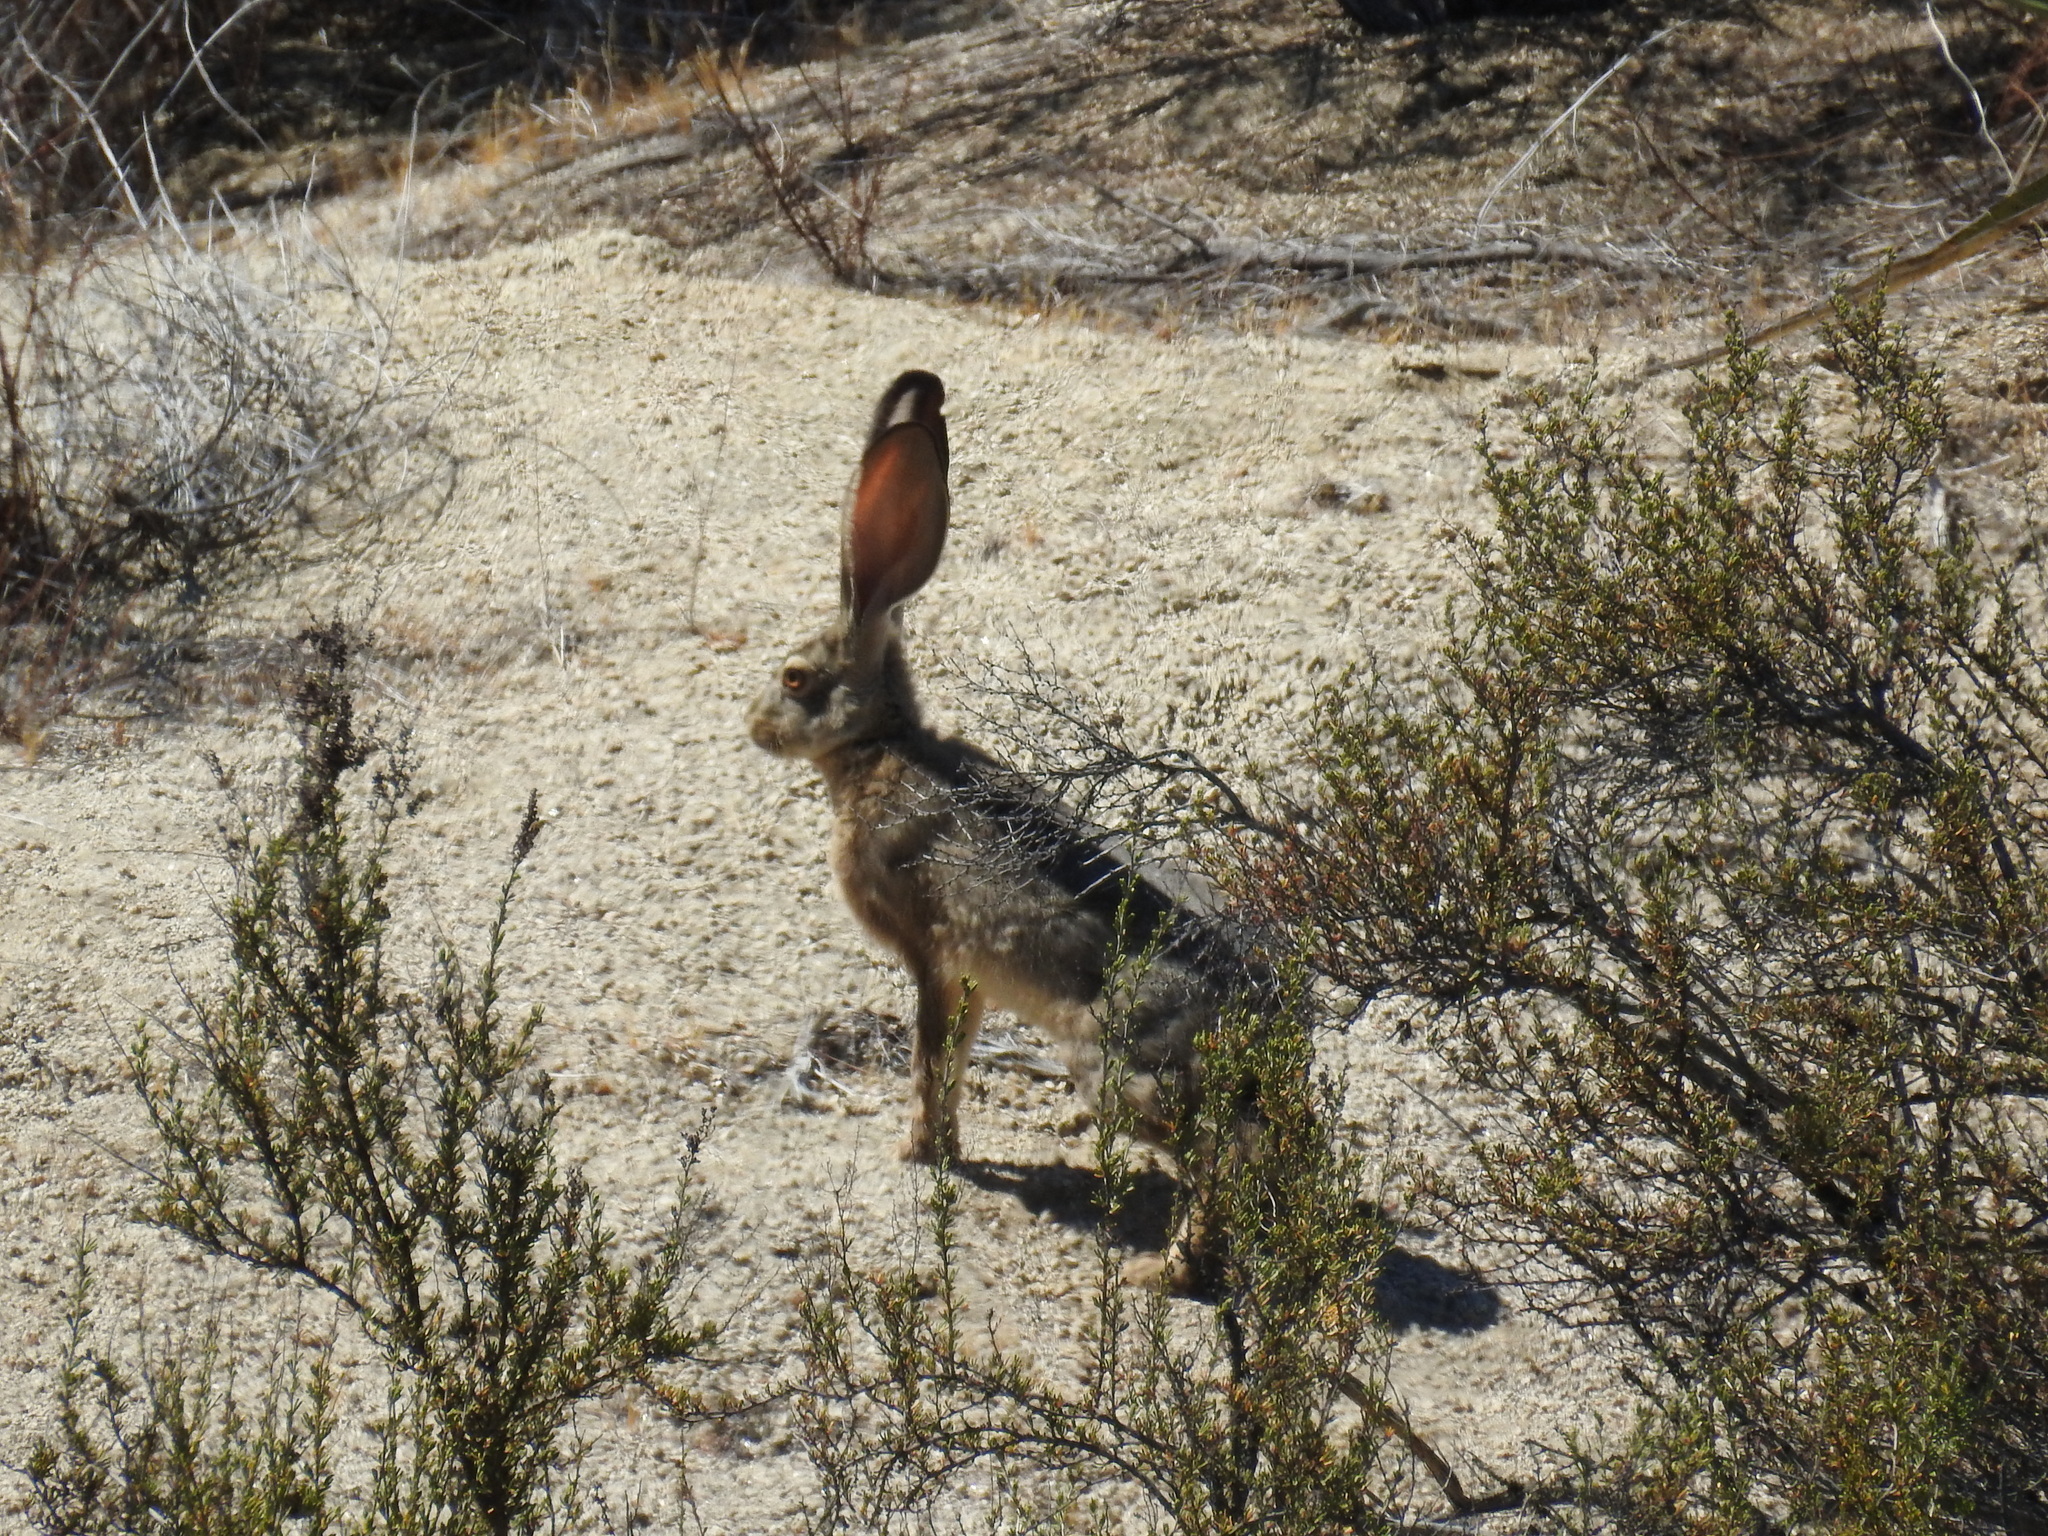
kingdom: Animalia
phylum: Chordata
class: Mammalia
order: Lagomorpha
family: Leporidae
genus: Lepus
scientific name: Lepus californicus
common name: Black-tailed jackrabbit
